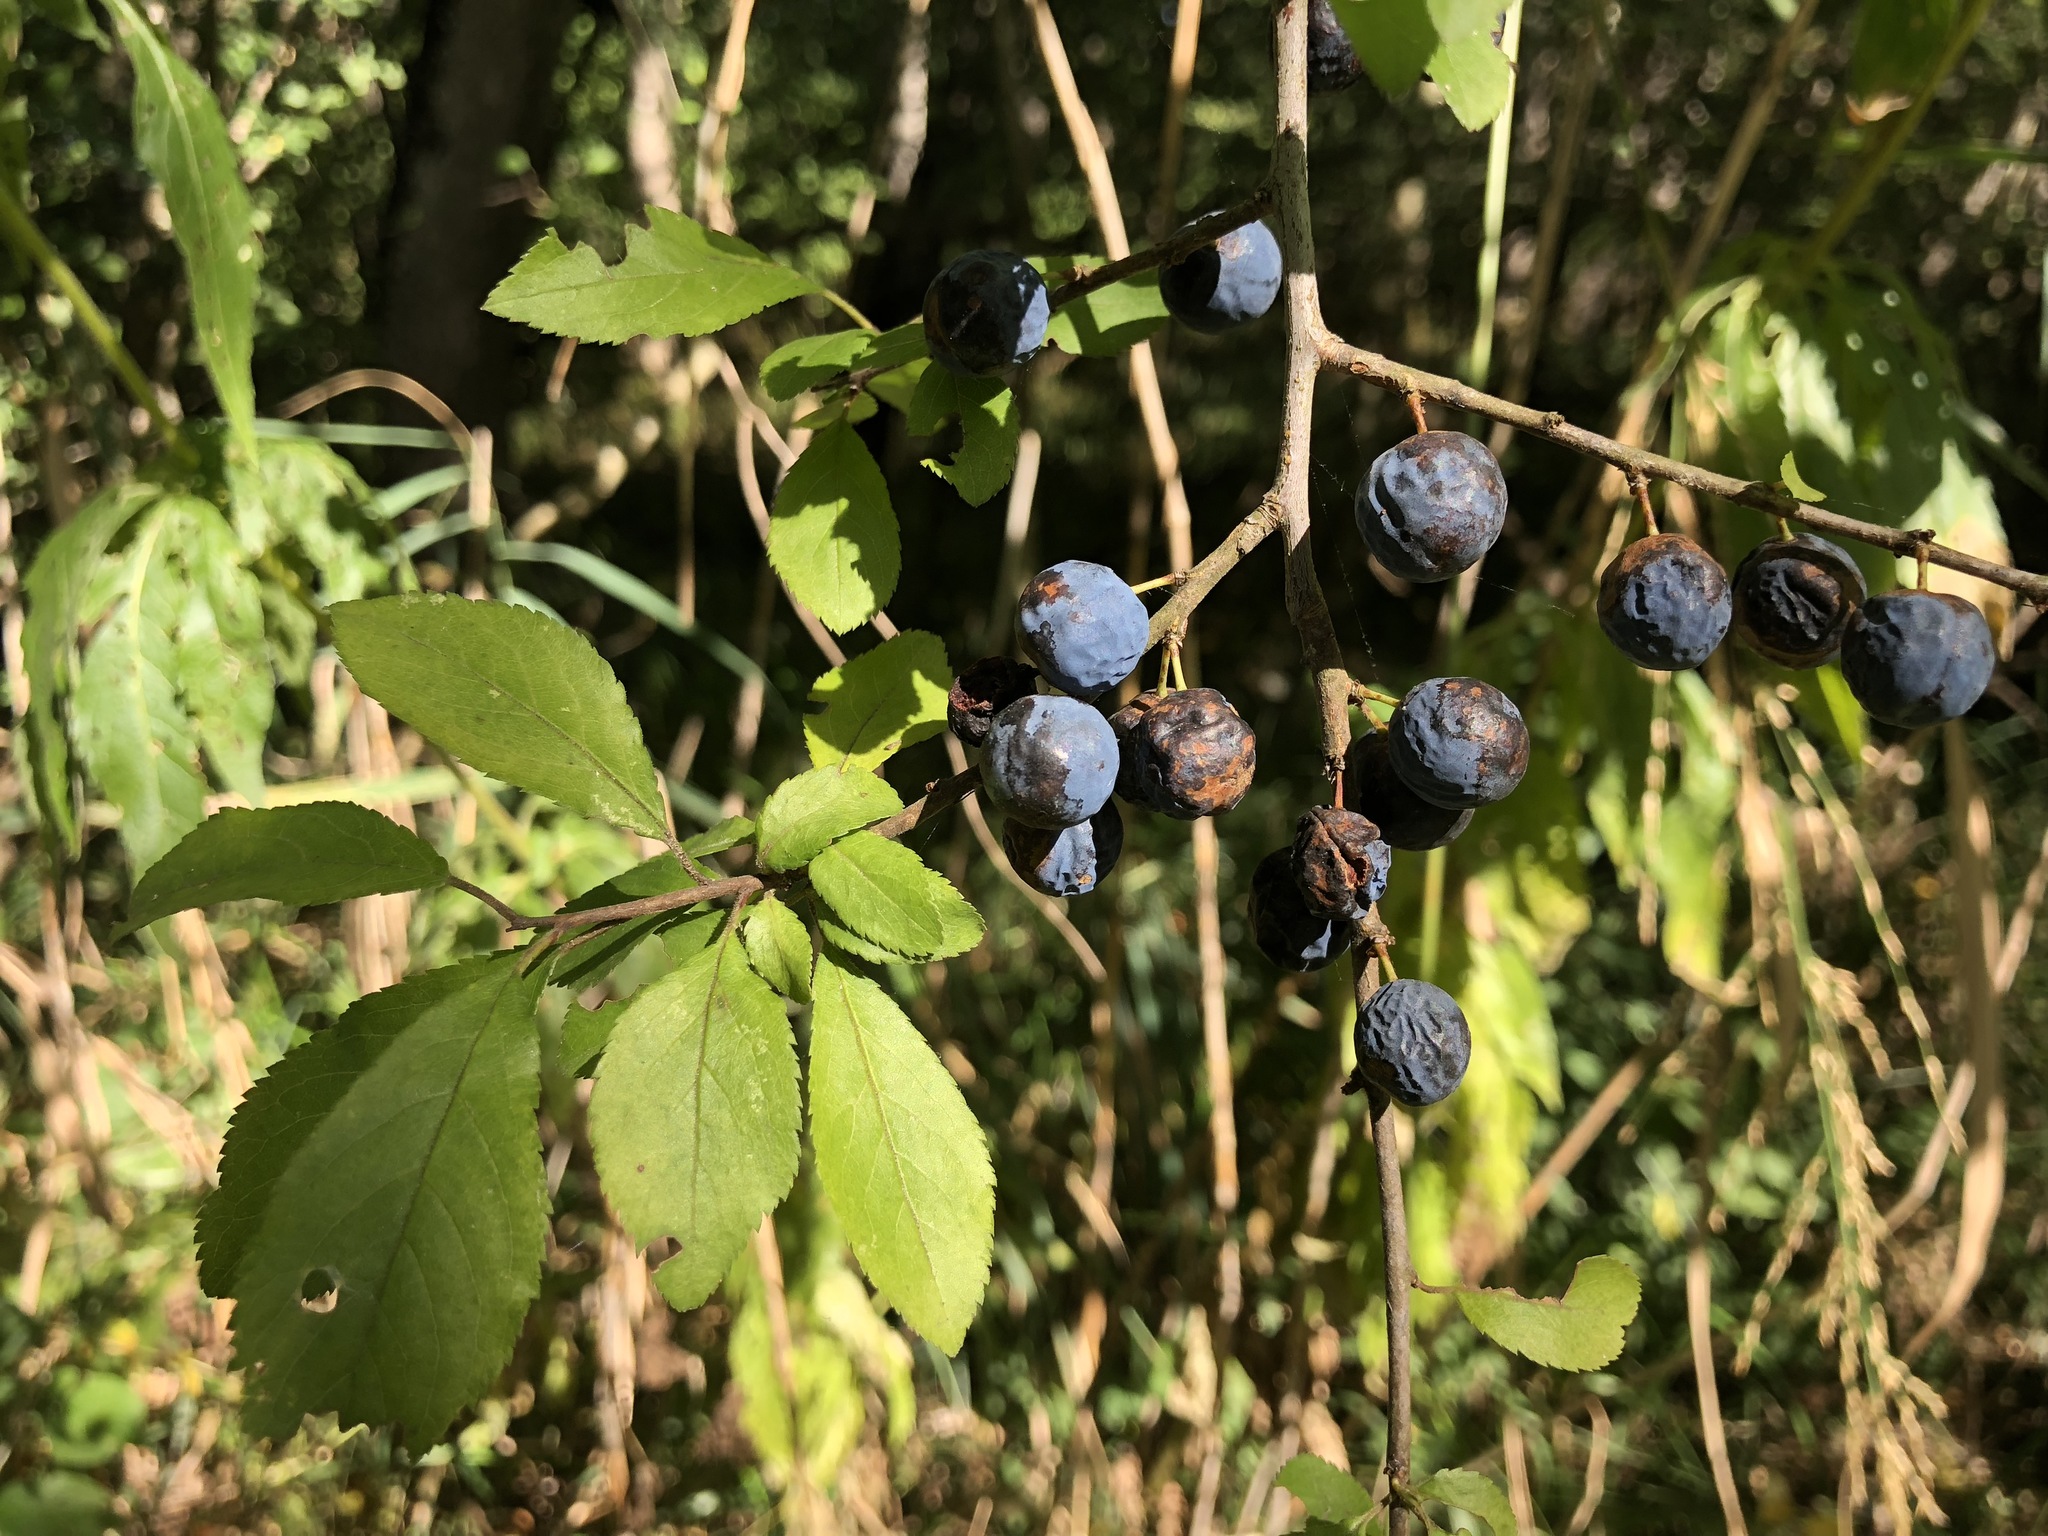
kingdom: Plantae
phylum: Tracheophyta
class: Magnoliopsida
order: Rosales
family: Rosaceae
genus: Prunus
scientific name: Prunus spinosa
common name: Blackthorn
